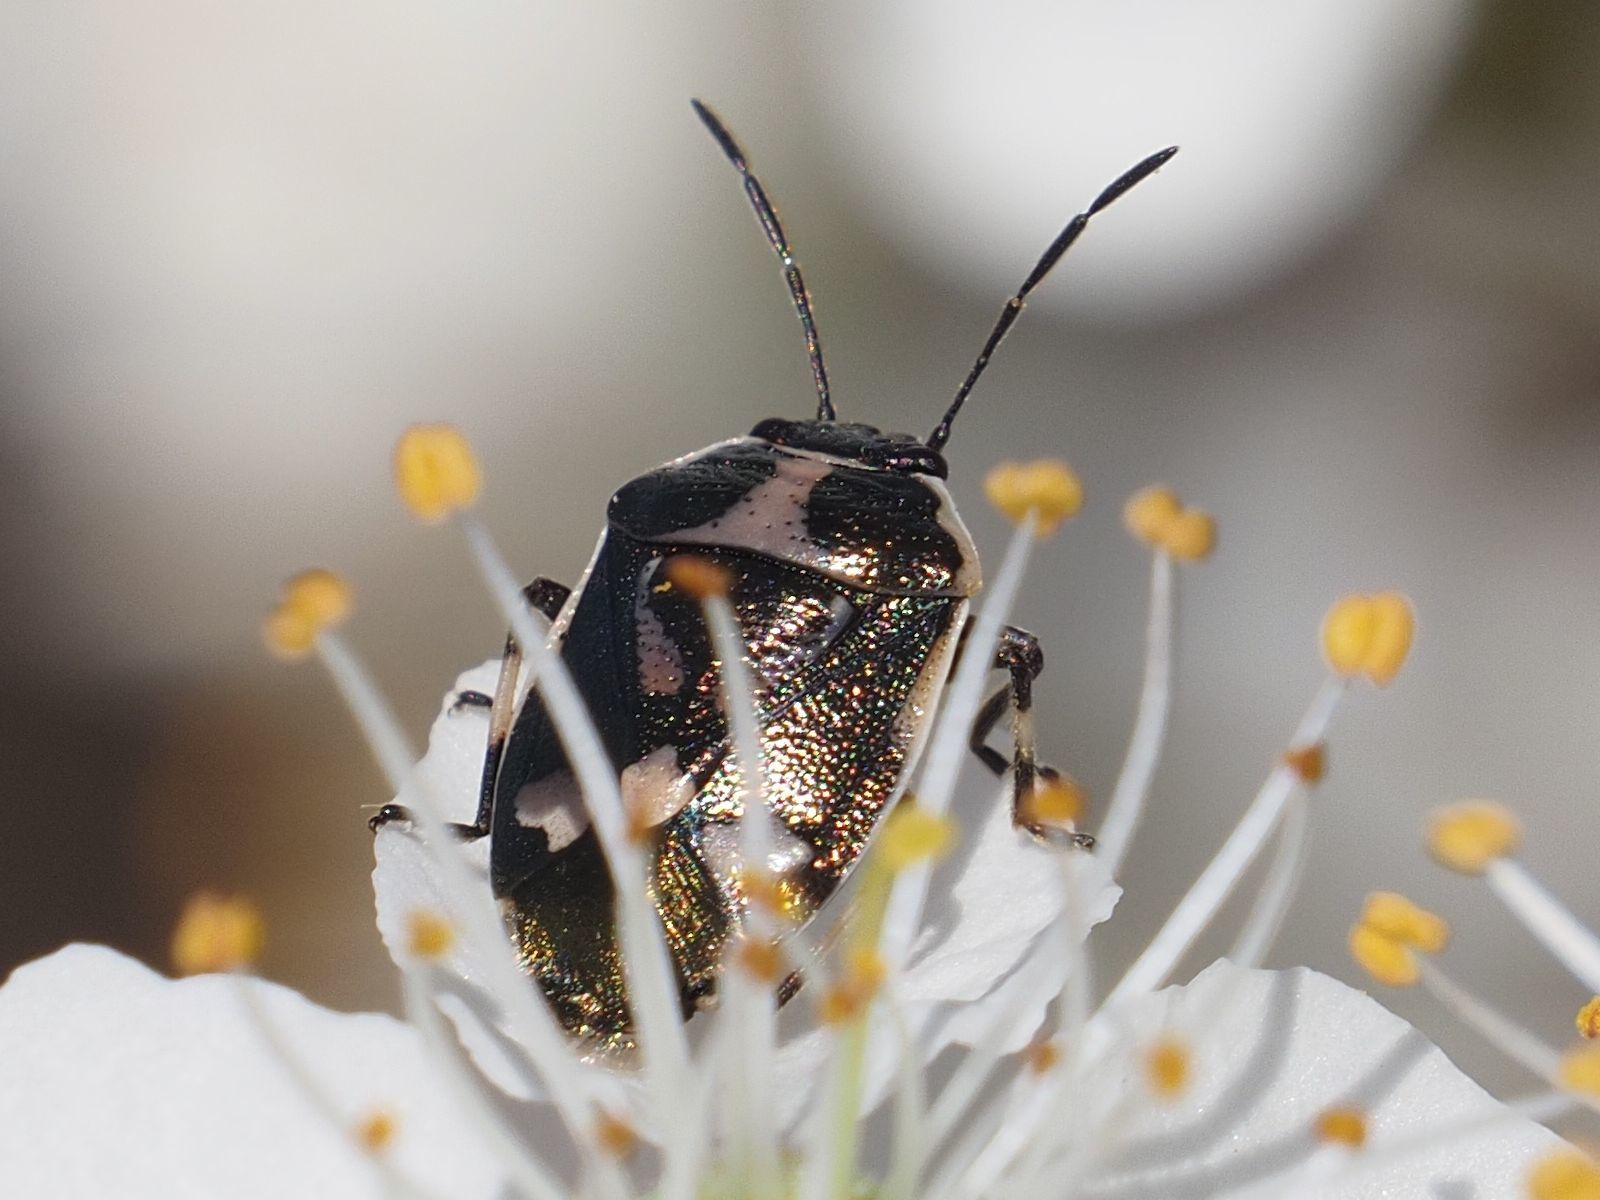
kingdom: Animalia
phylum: Arthropoda
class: Insecta
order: Hemiptera
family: Pentatomidae
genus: Eurydema
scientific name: Eurydema oleracea
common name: Cabbage bug
